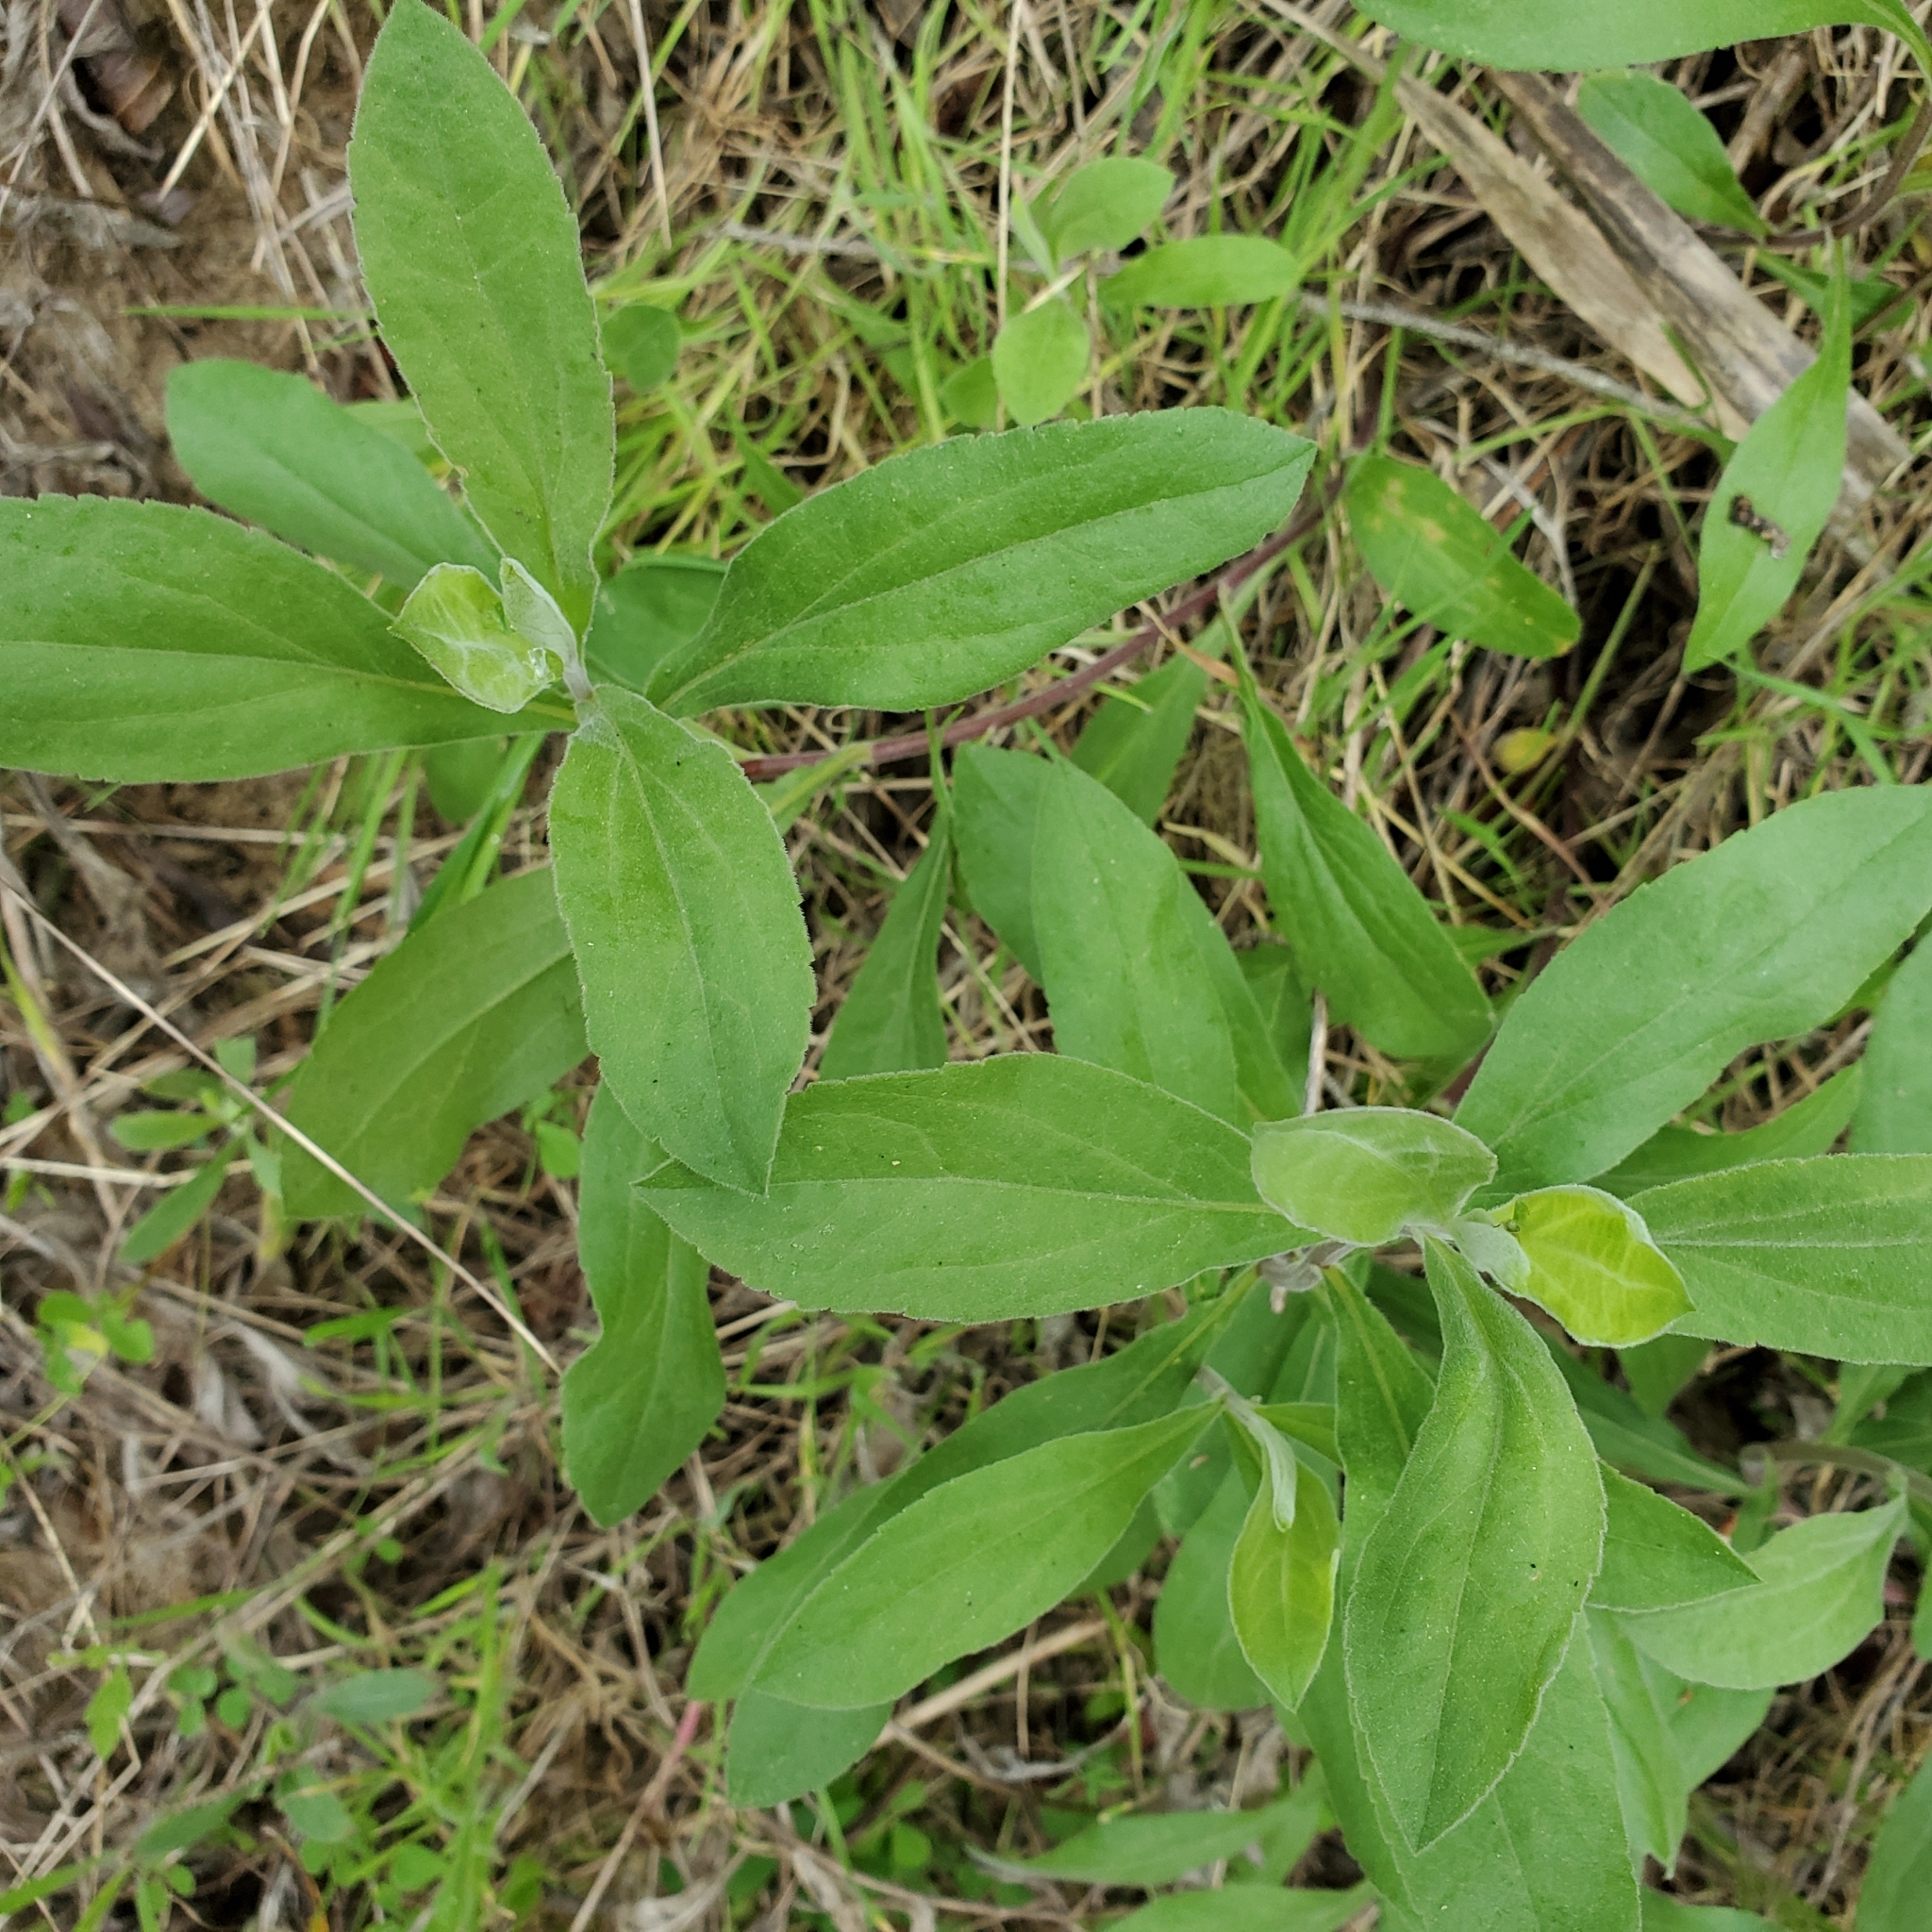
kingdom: Plantae
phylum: Tracheophyta
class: Magnoliopsida
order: Asterales
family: Asteraceae
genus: Solidago
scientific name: Solidago californica
